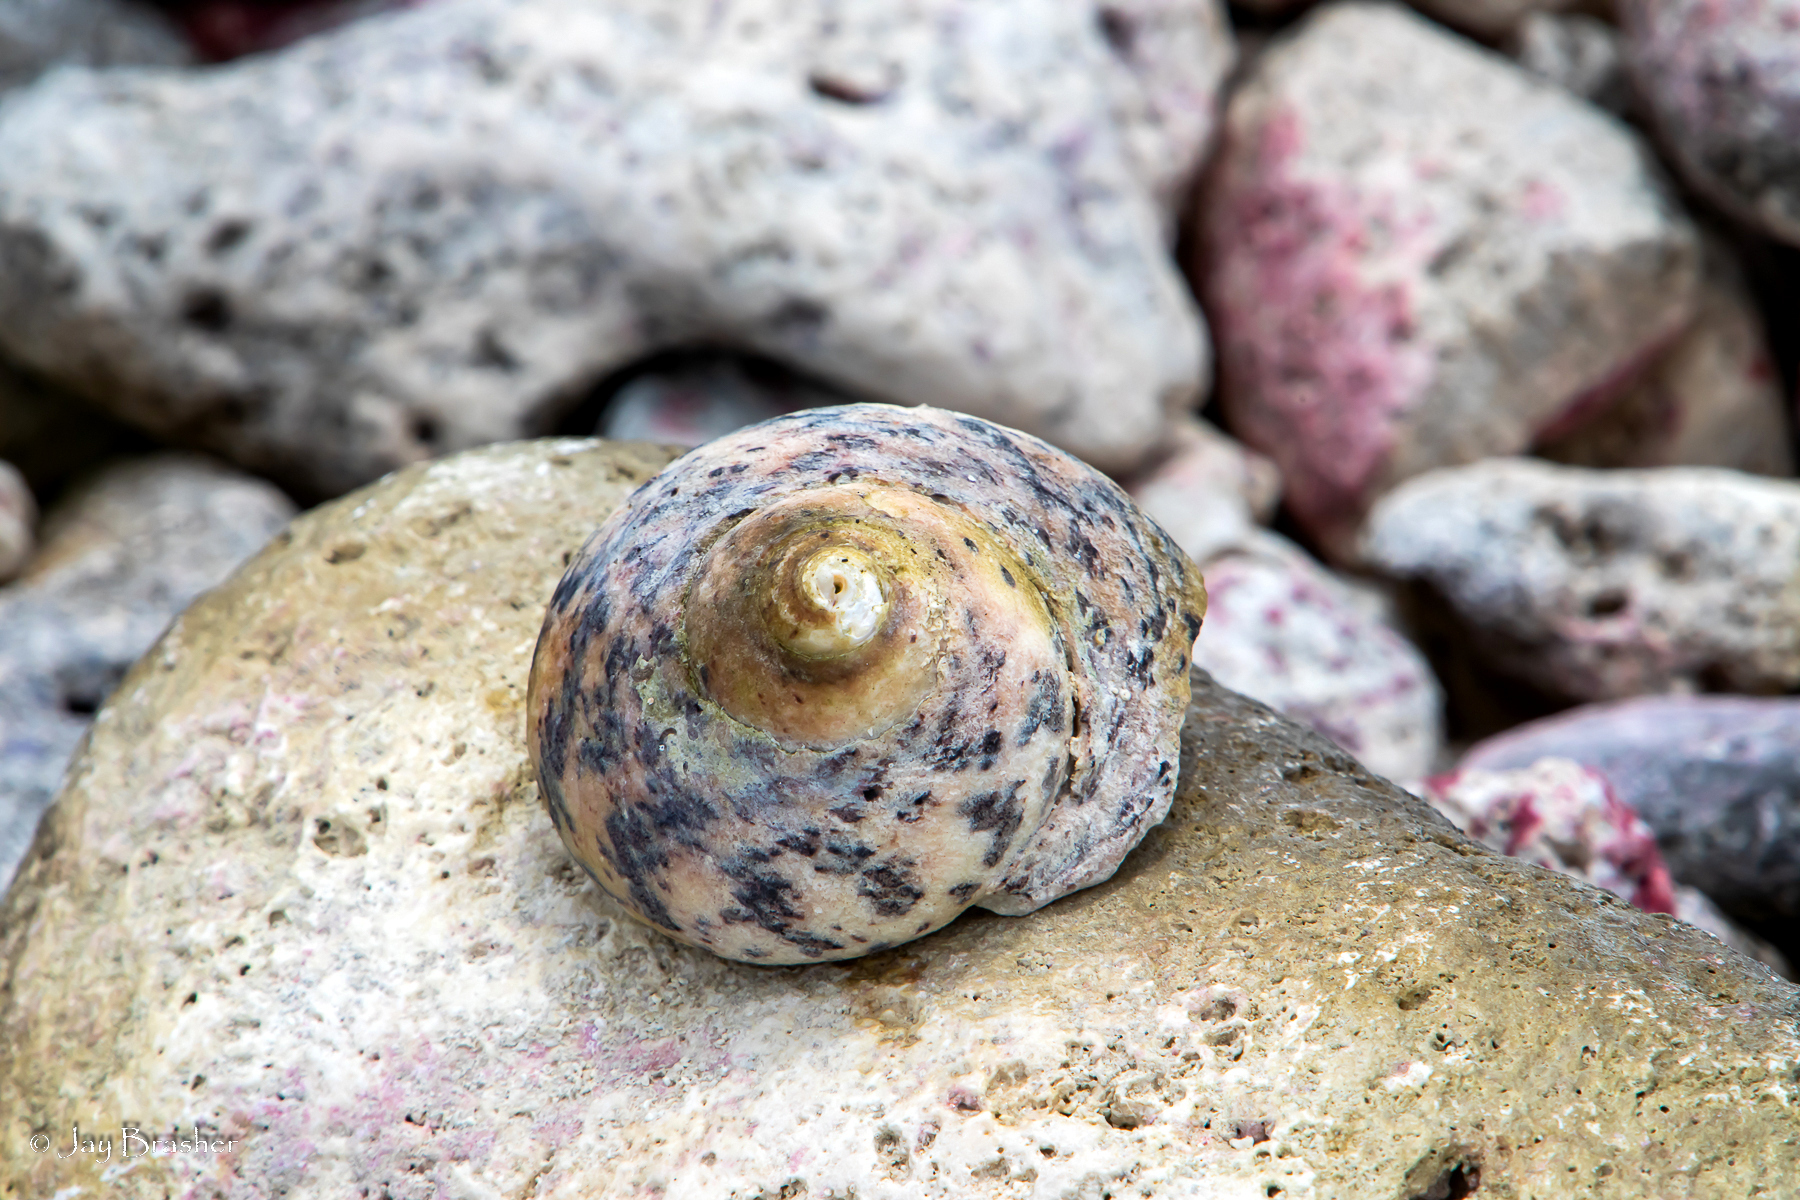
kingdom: Animalia
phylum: Mollusca
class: Gastropoda
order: Trochida
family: Tegulidae
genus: Cittarium
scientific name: Cittarium pica
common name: West indian topshell
